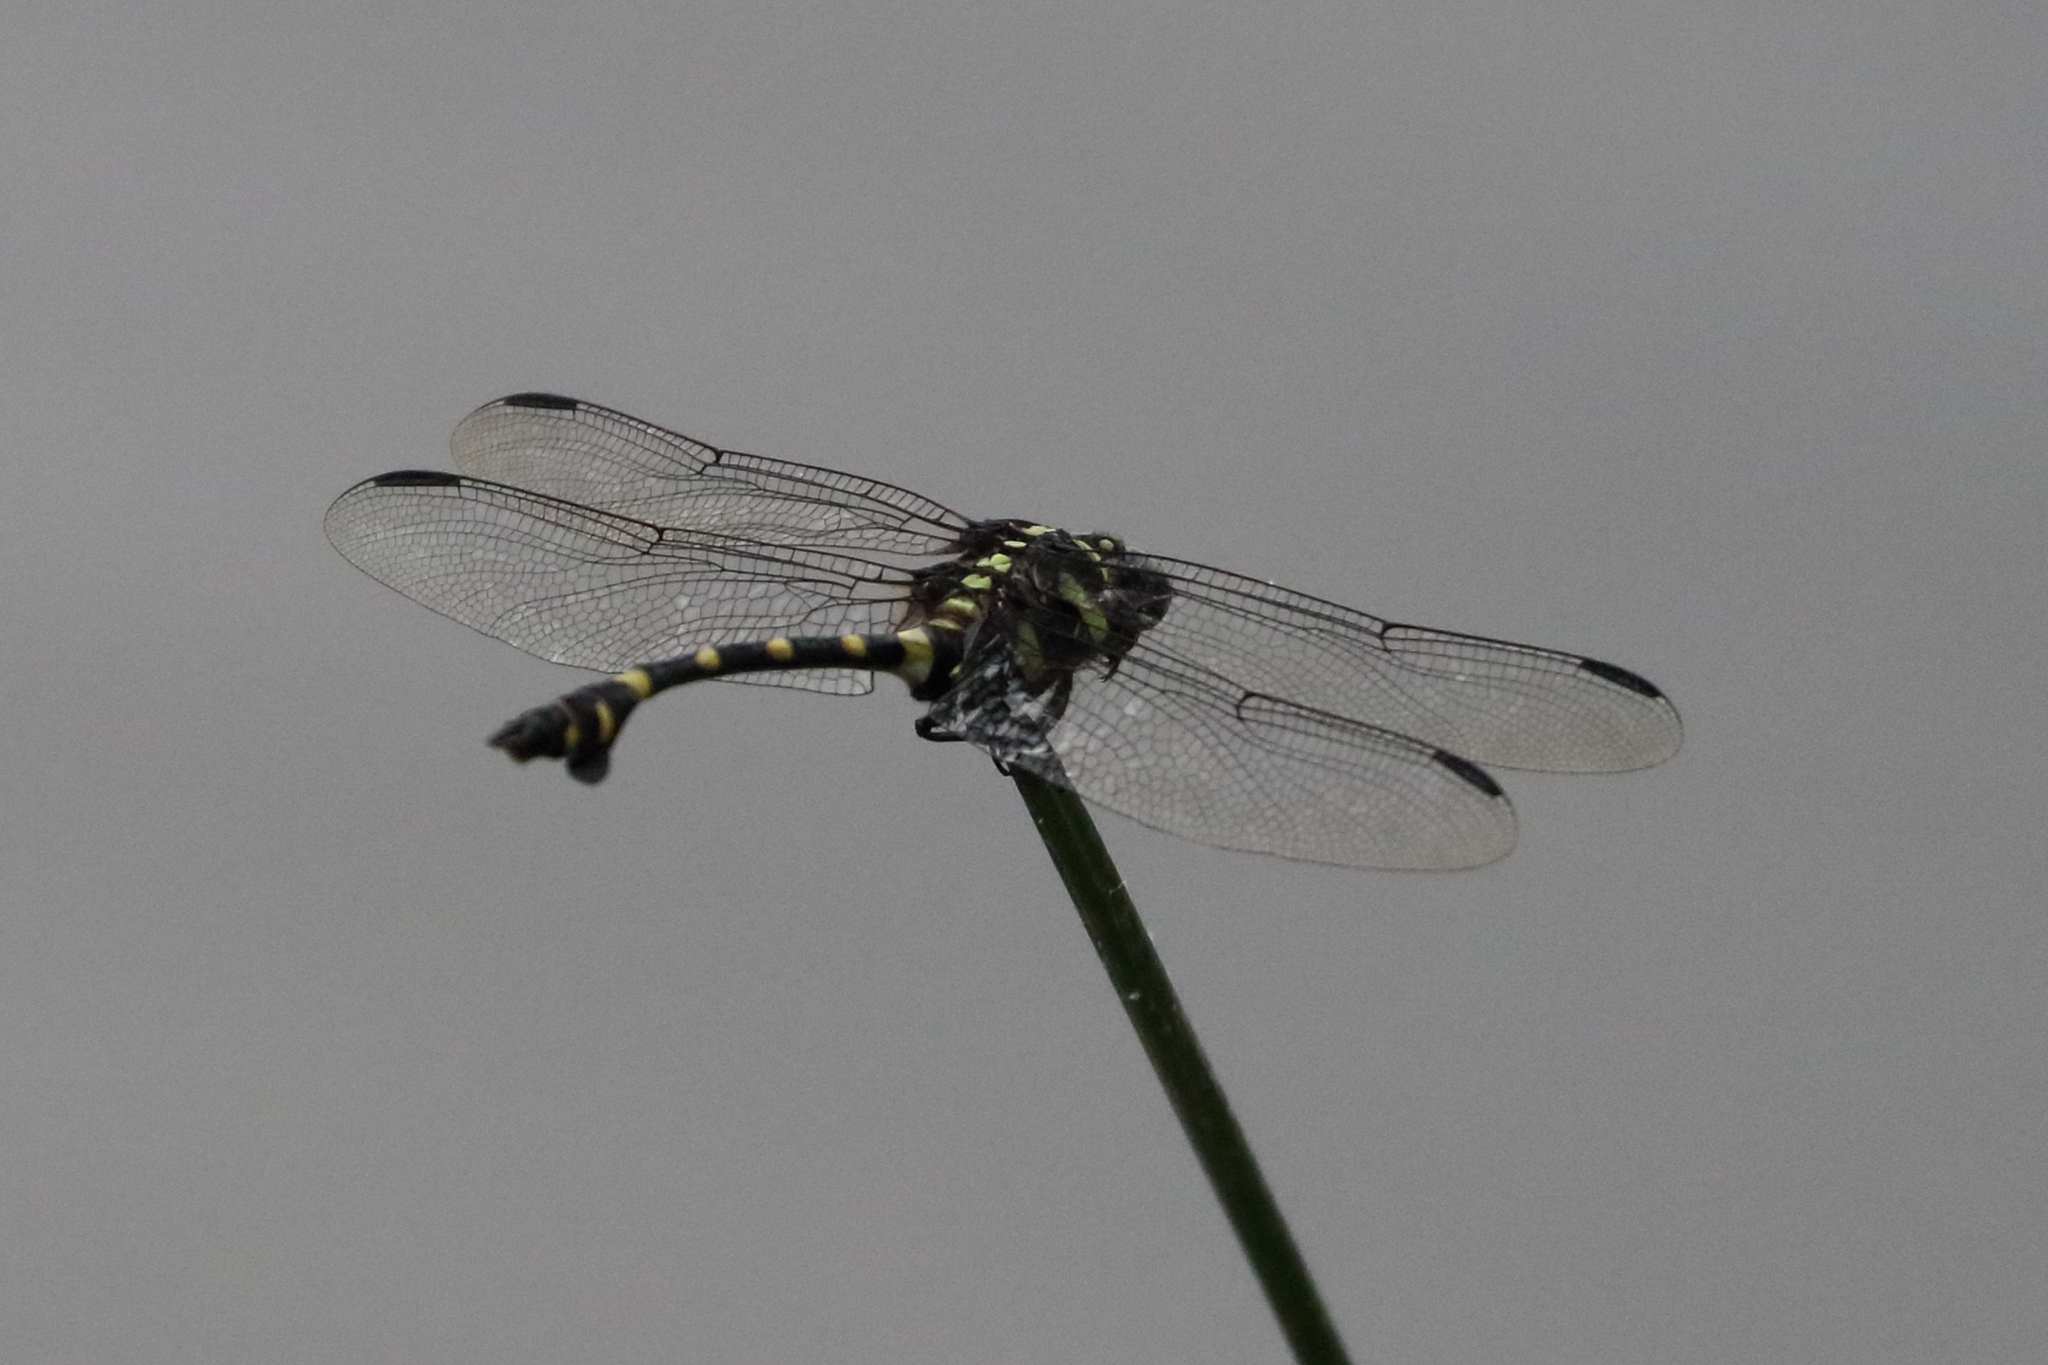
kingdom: Animalia
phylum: Arthropoda
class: Insecta
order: Odonata
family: Gomphidae
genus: Ictinogomphus
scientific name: Ictinogomphus decoratus
